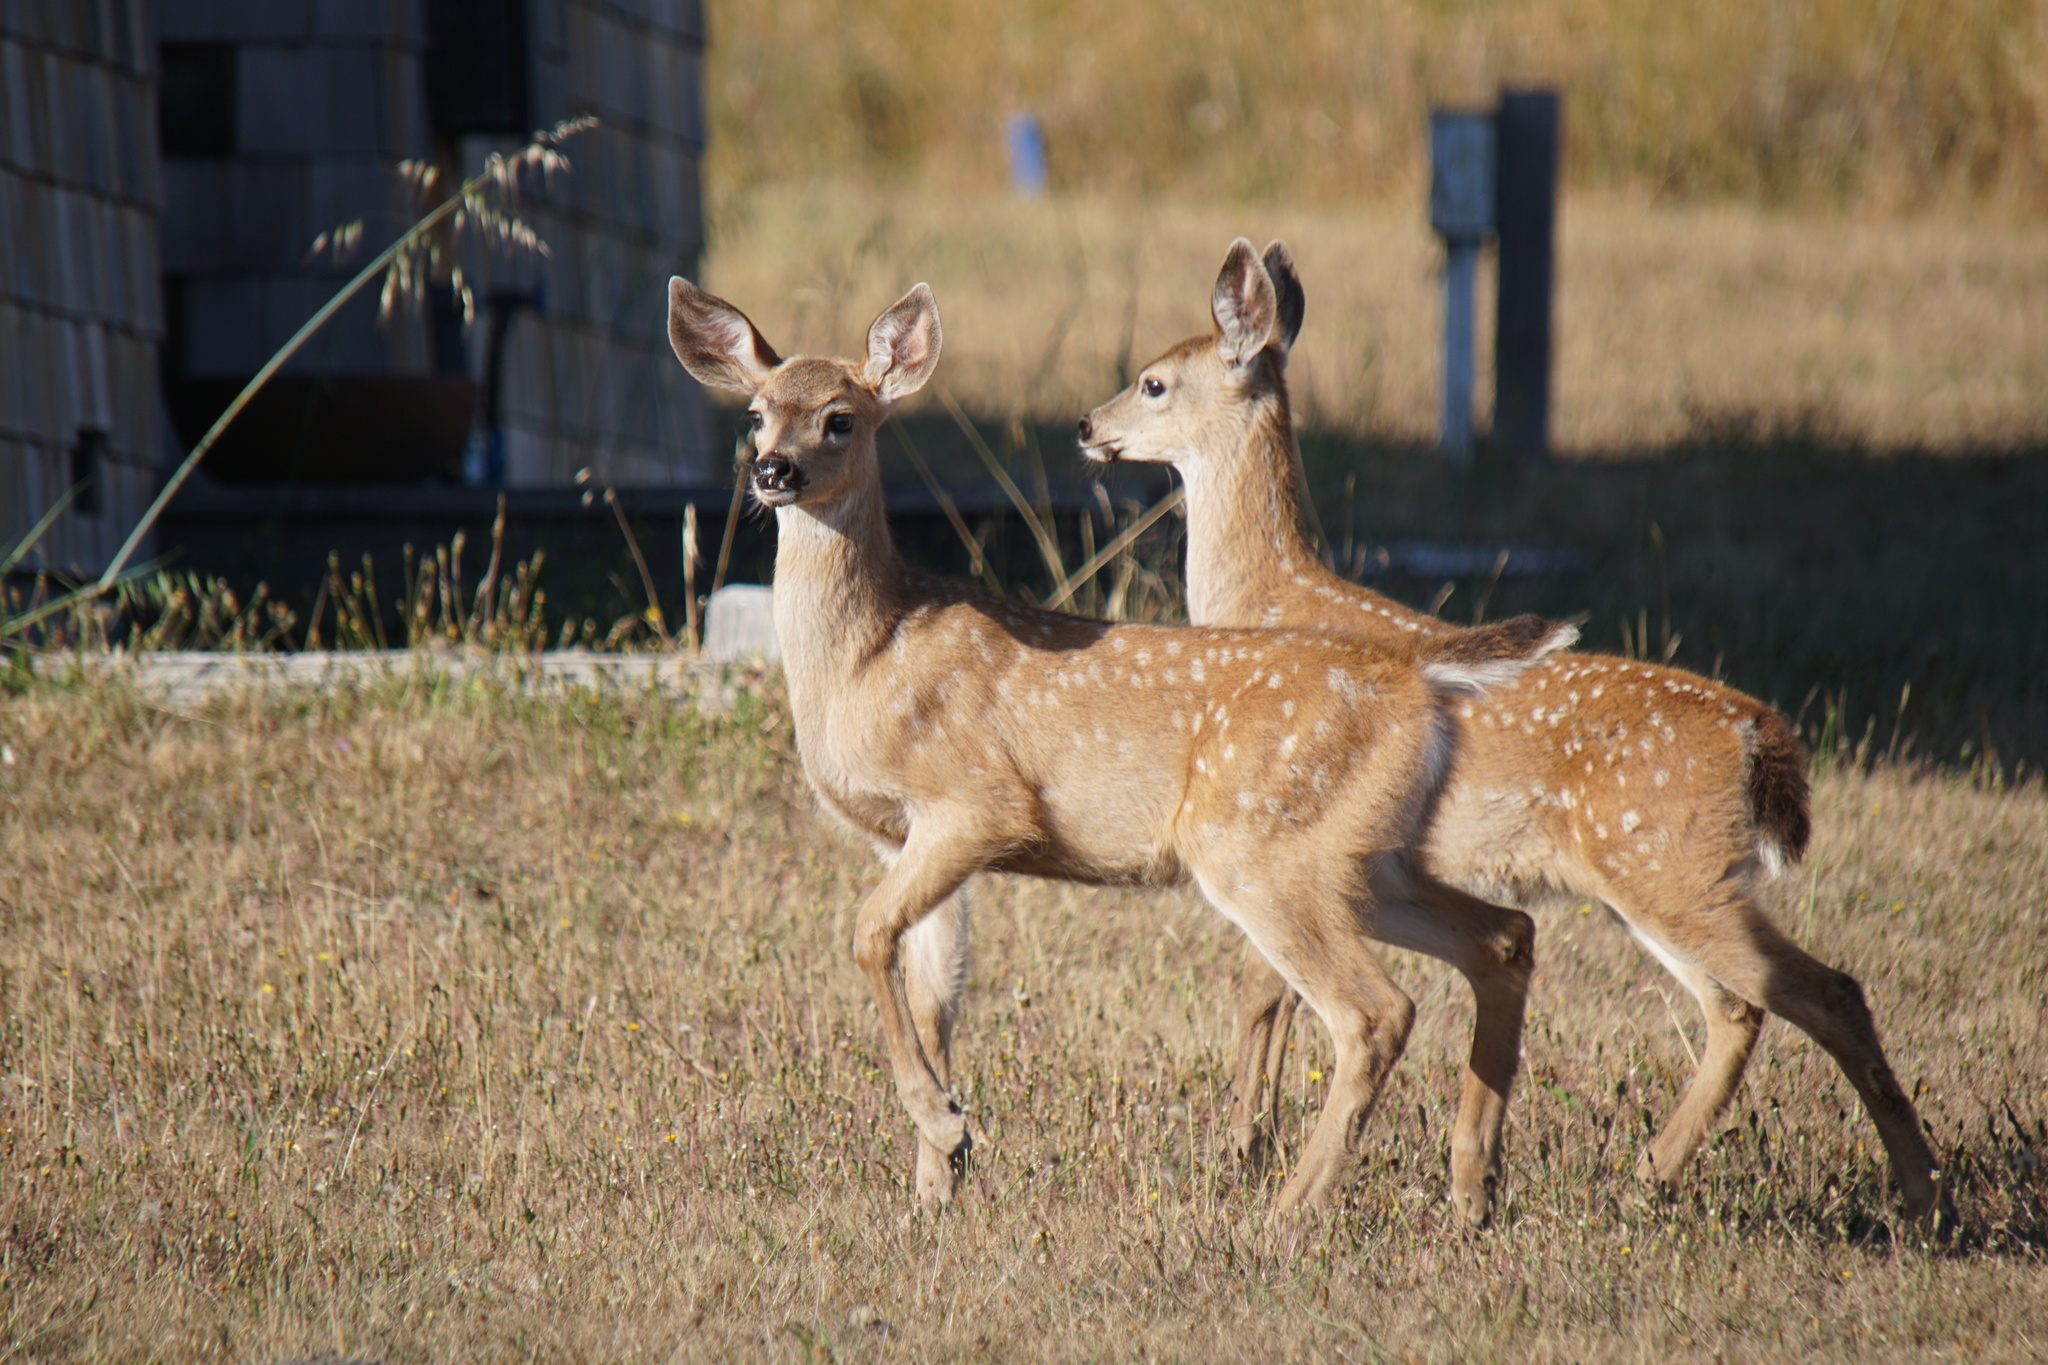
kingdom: Animalia
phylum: Chordata
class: Mammalia
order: Artiodactyla
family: Cervidae
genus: Odocoileus
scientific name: Odocoileus hemionus
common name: Mule deer
